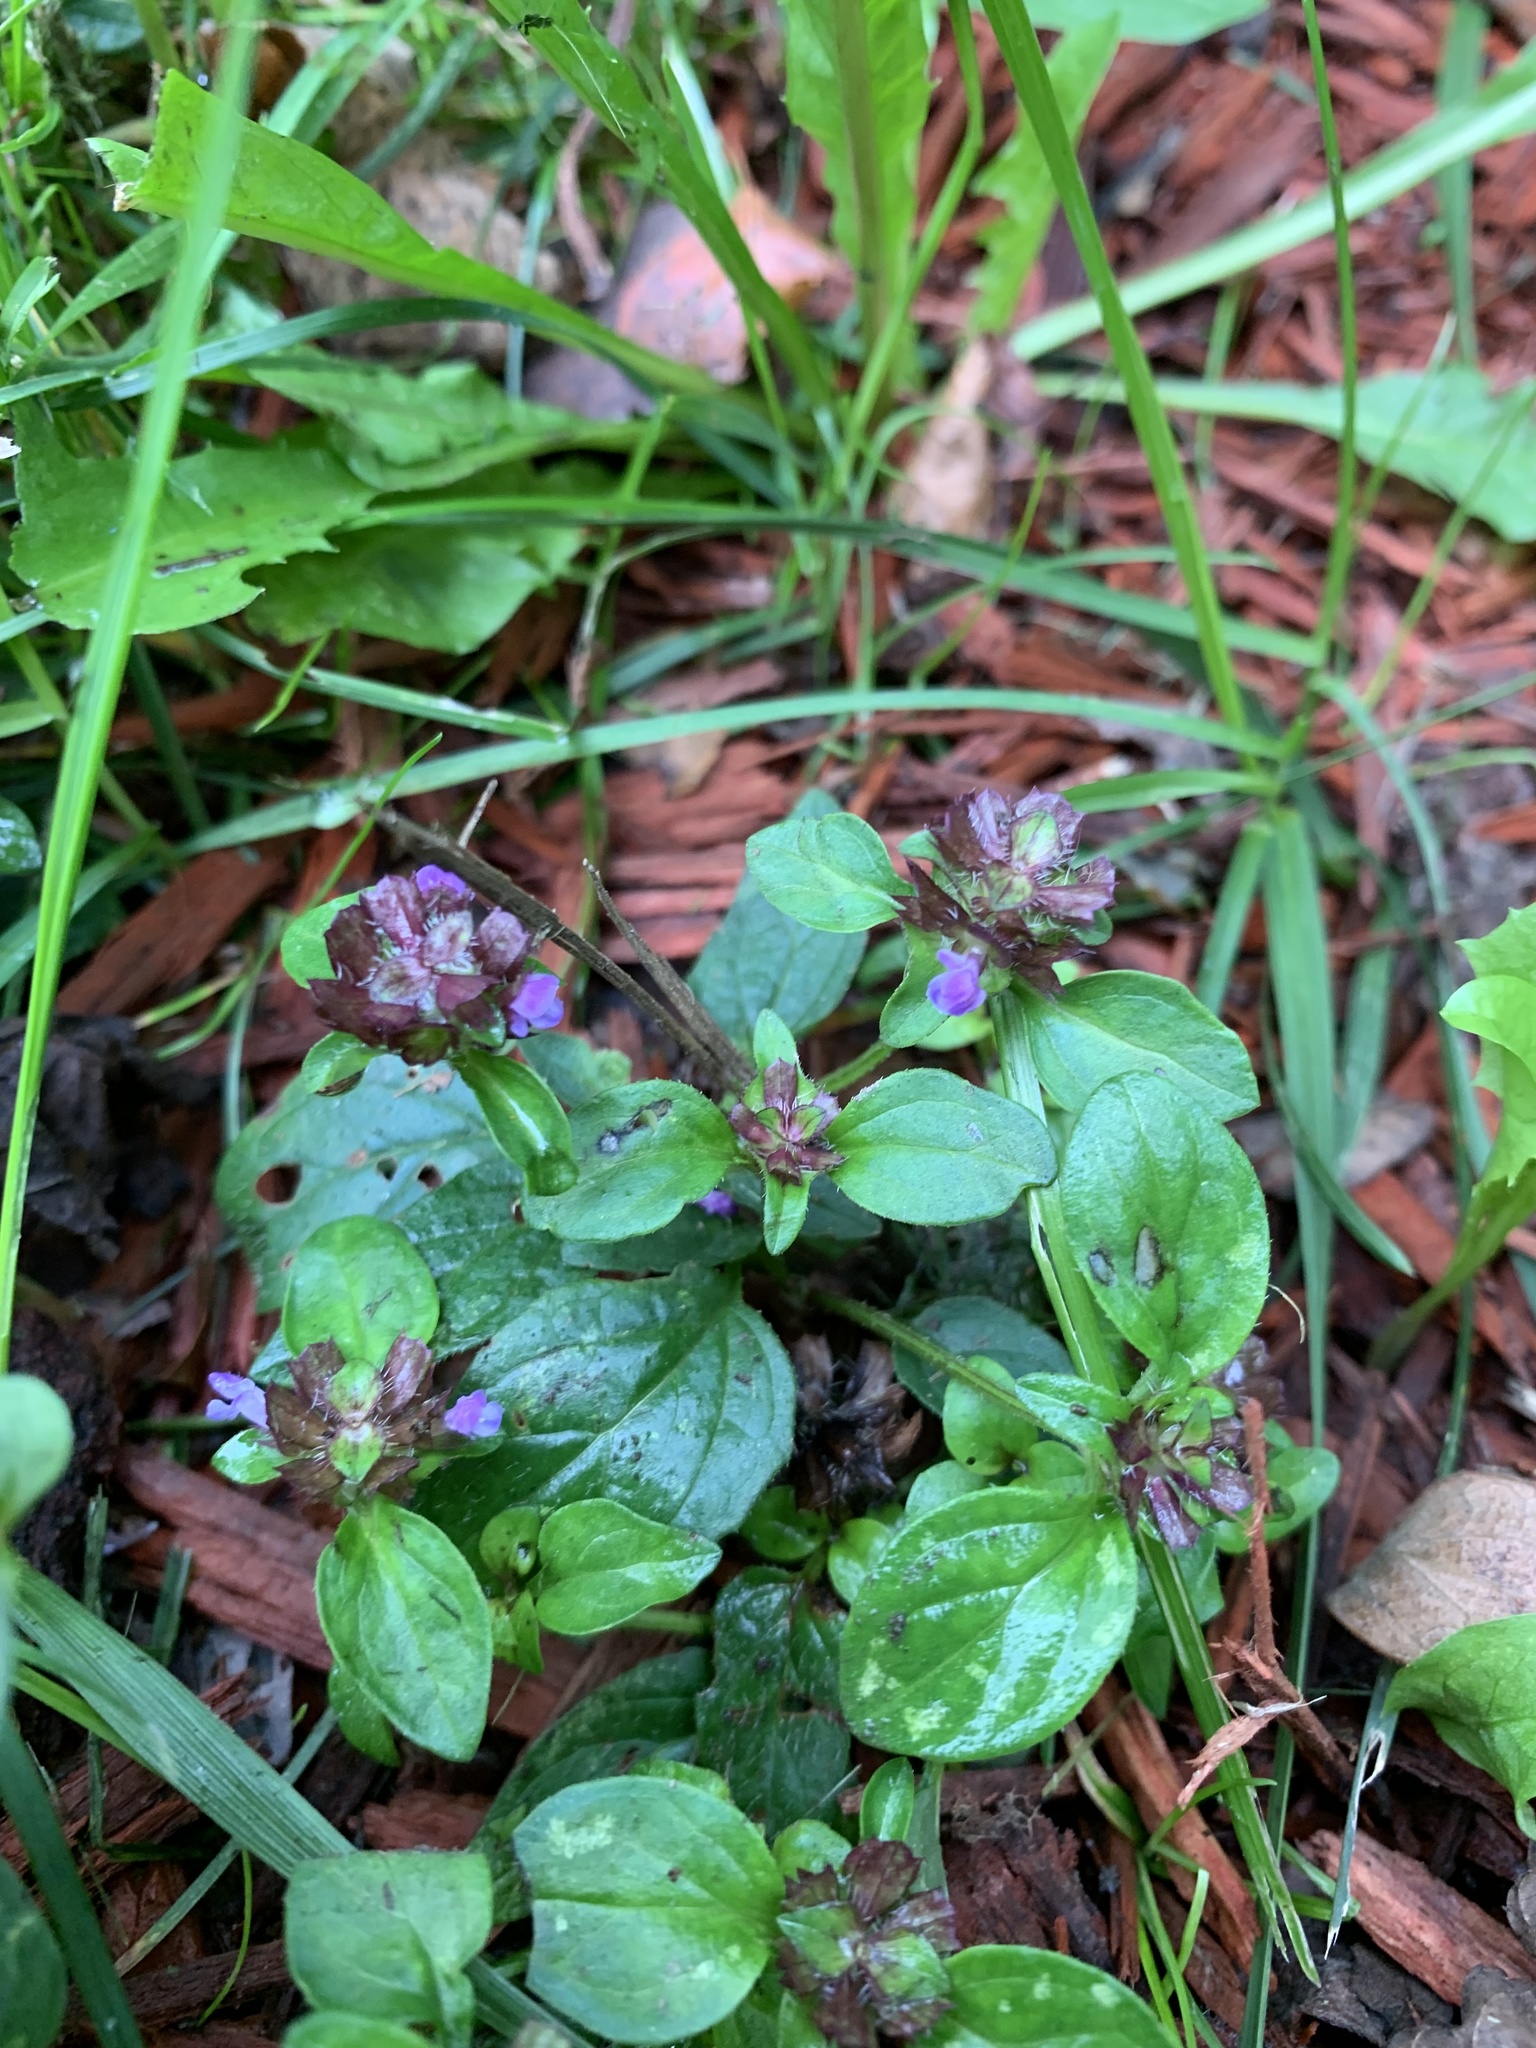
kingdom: Plantae
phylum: Tracheophyta
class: Magnoliopsida
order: Lamiales
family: Lamiaceae
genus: Prunella
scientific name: Prunella vulgaris
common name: Heal-all
